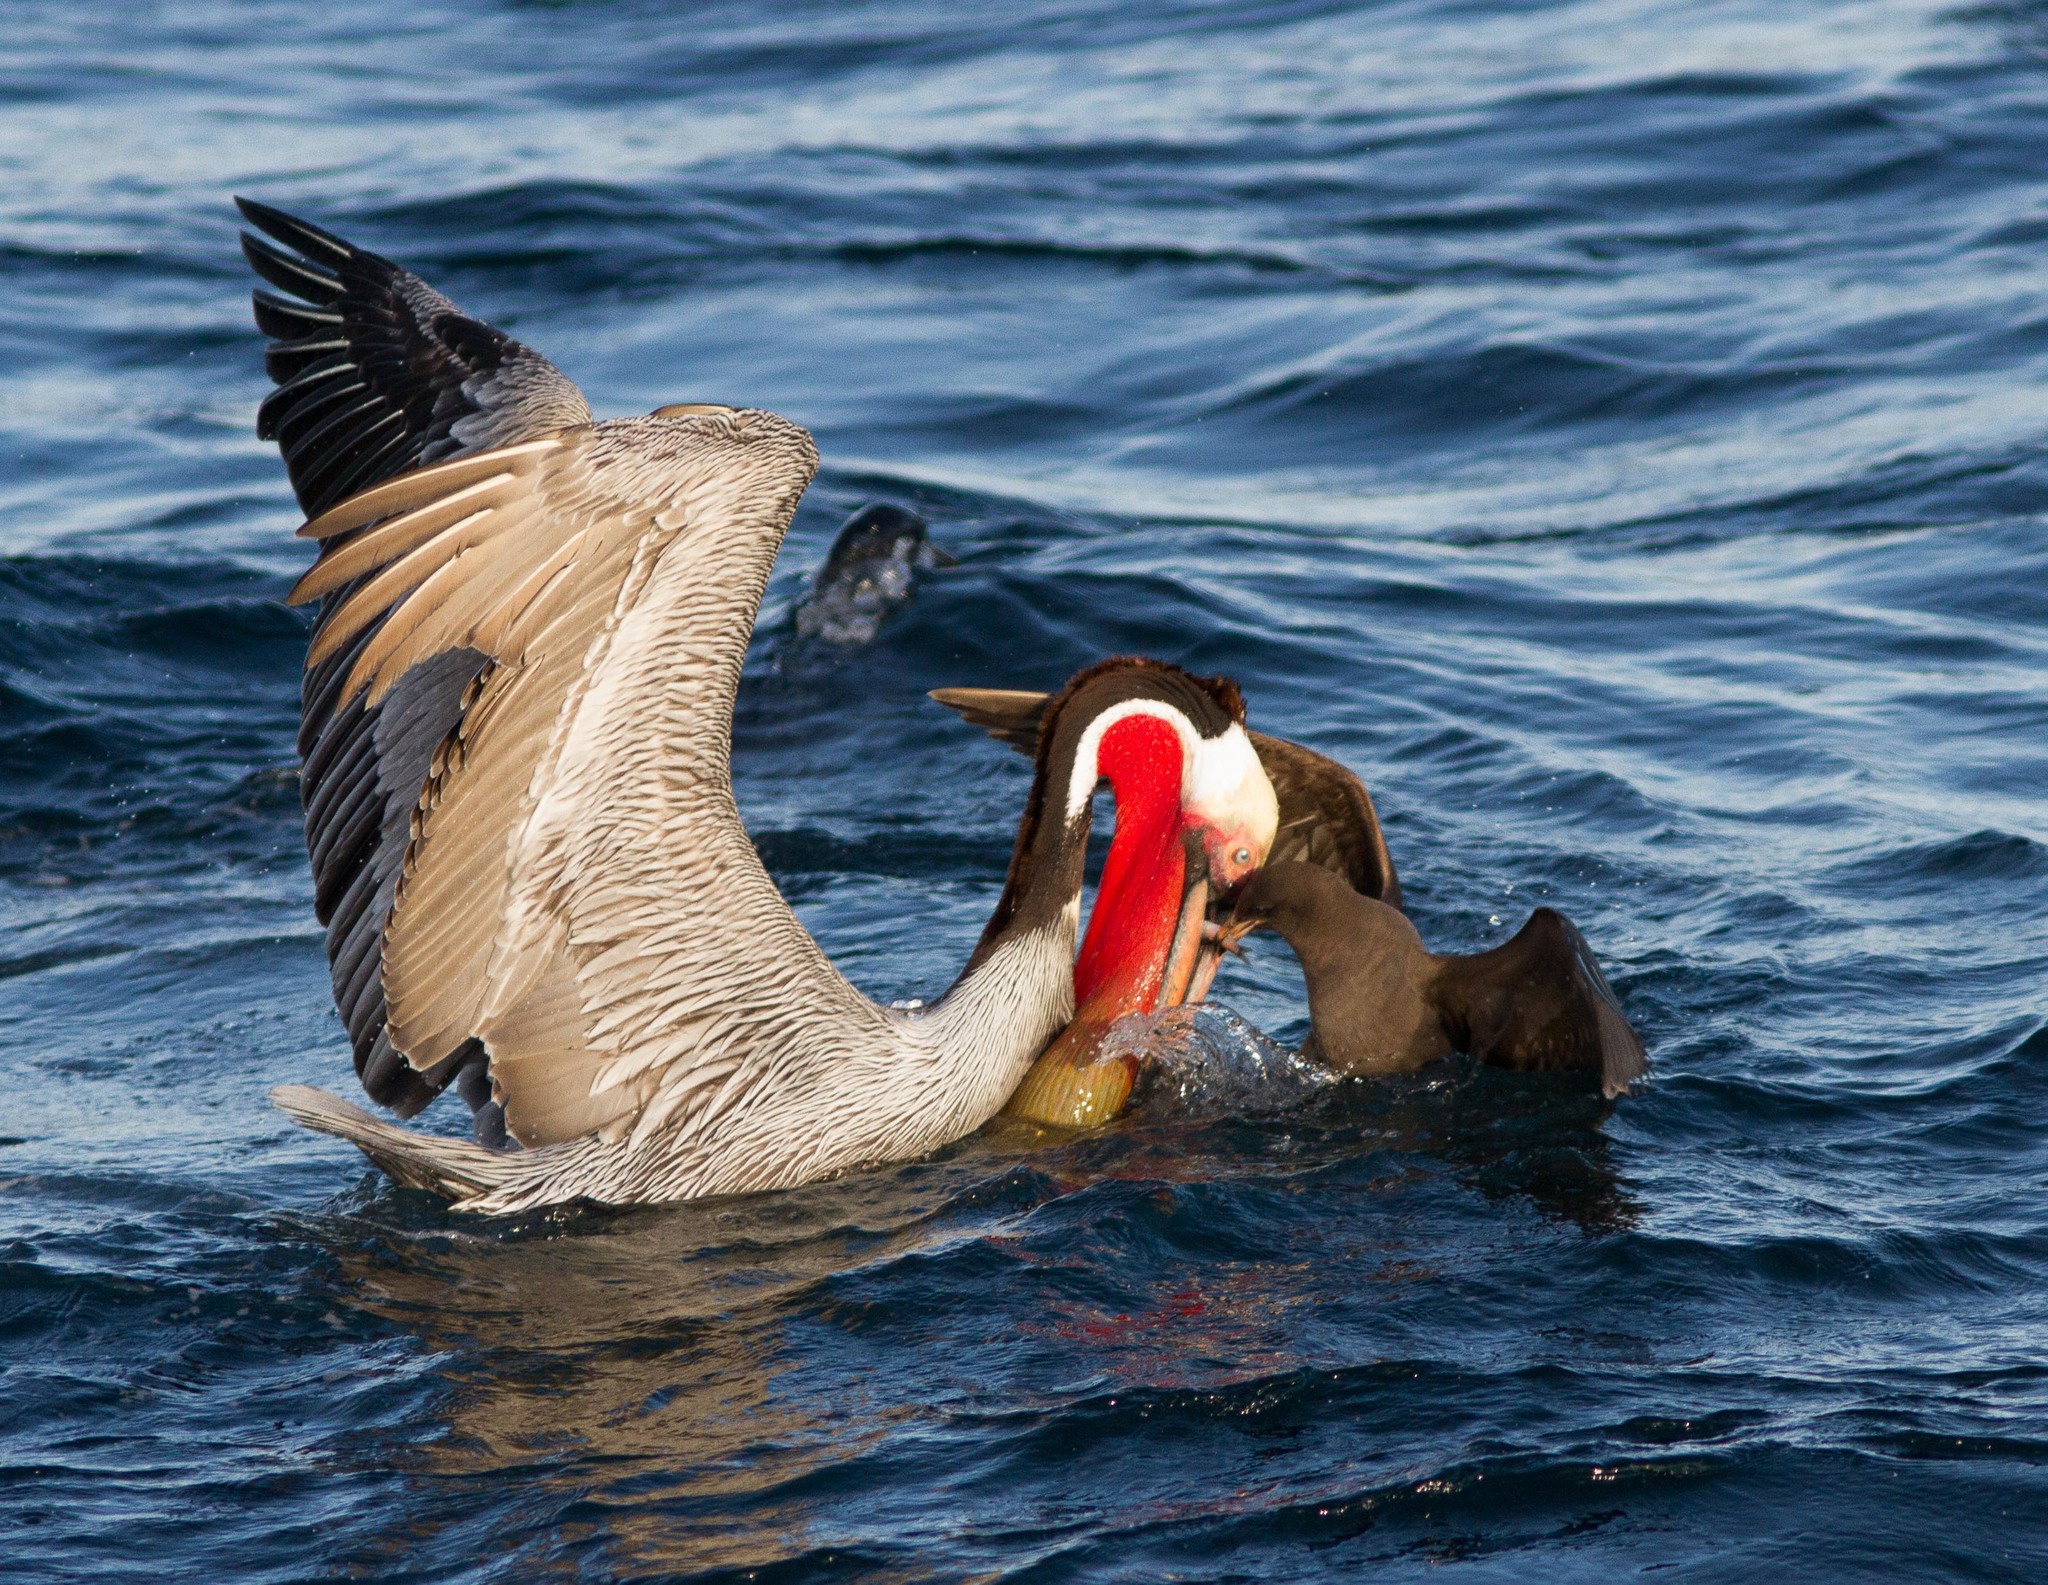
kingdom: Animalia
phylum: Chordata
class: Aves
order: Pelecaniformes
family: Pelecanidae
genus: Pelecanus
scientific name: Pelecanus occidentalis
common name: Brown pelican
